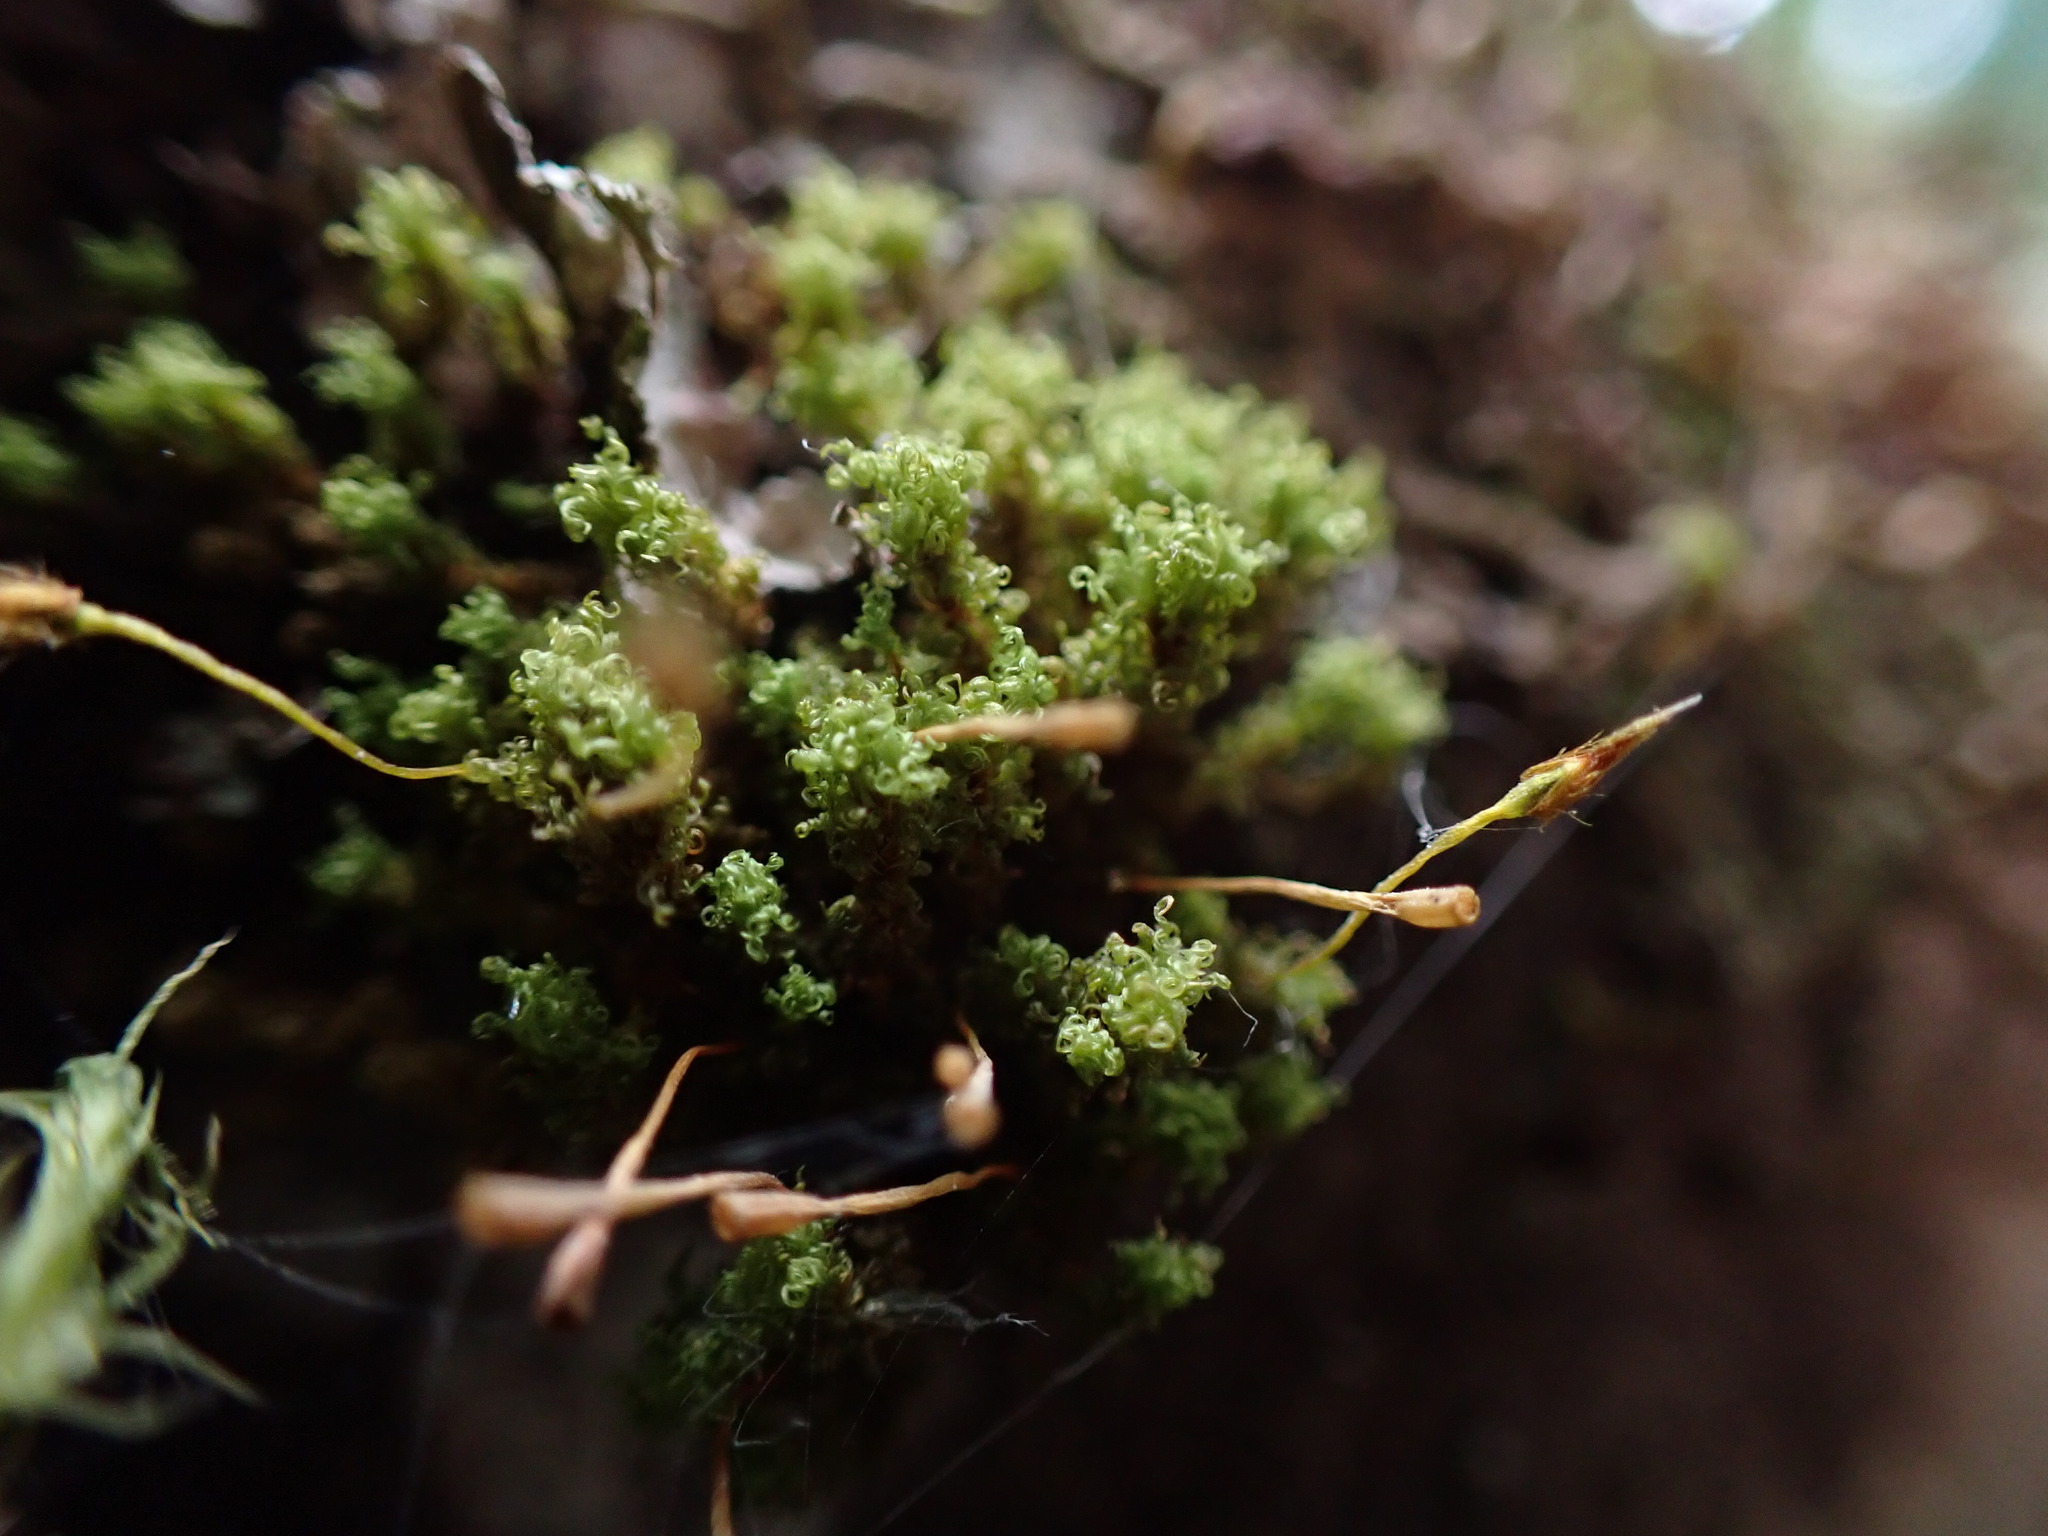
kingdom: Plantae
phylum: Bryophyta
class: Bryopsida
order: Orthotrichales
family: Orthotrichaceae
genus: Ulota
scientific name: Ulota obtusiuscula
